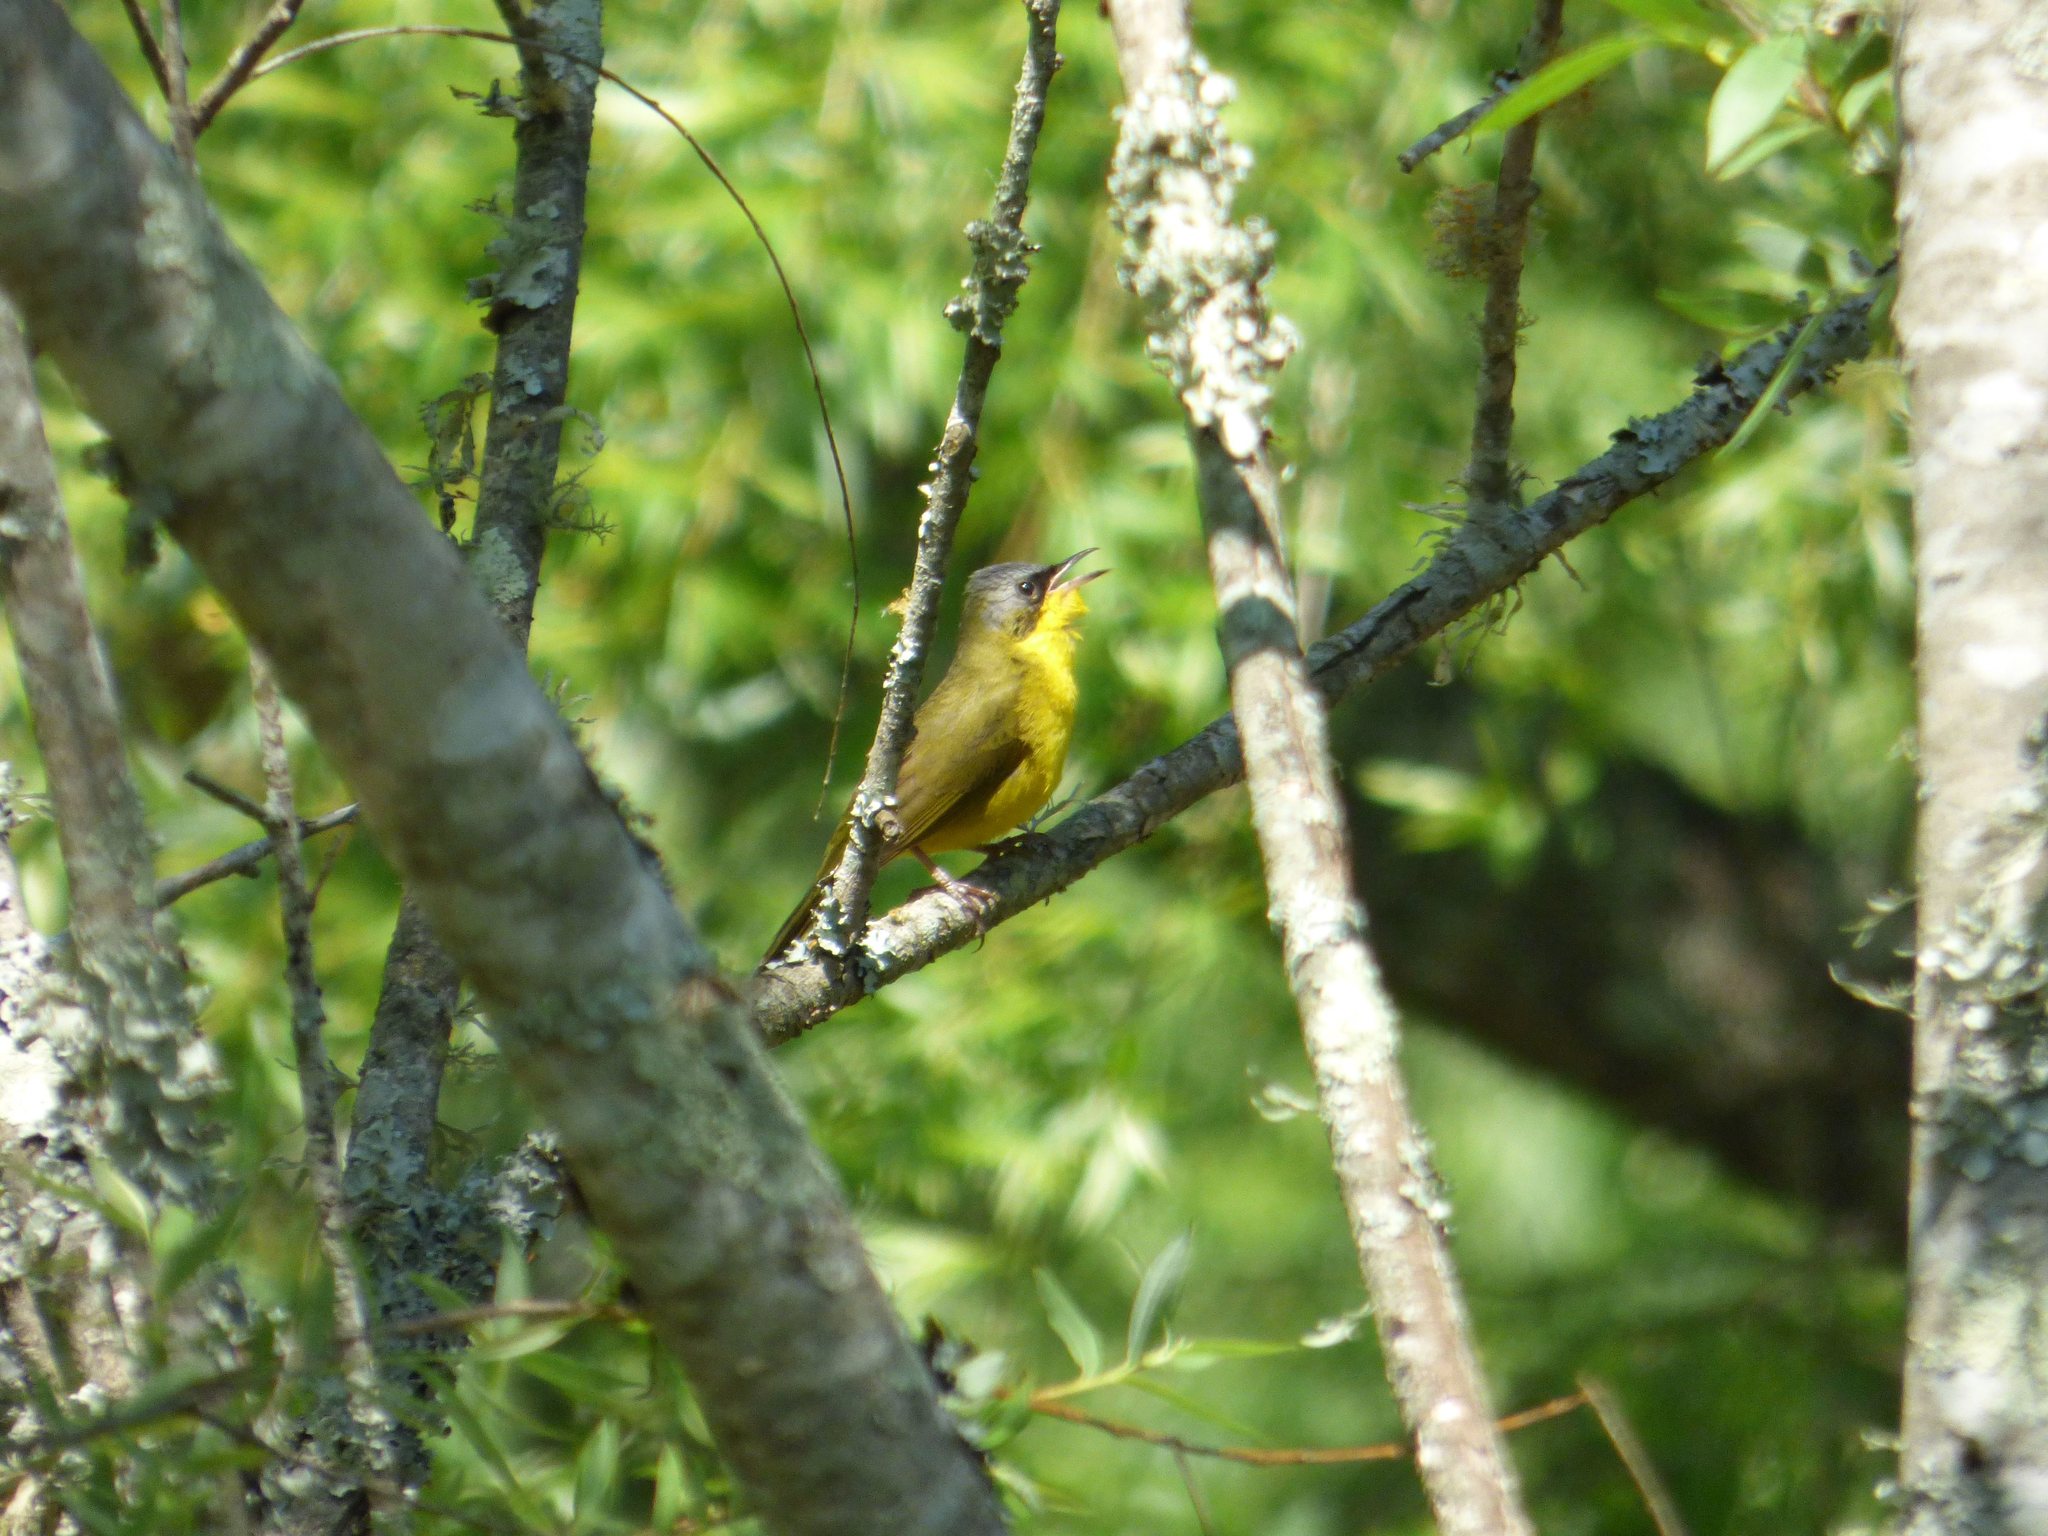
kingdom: Animalia
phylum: Chordata
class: Aves
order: Passeriformes
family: Parulidae
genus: Geothlypis
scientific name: Geothlypis velata
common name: Southern yellowthroat
